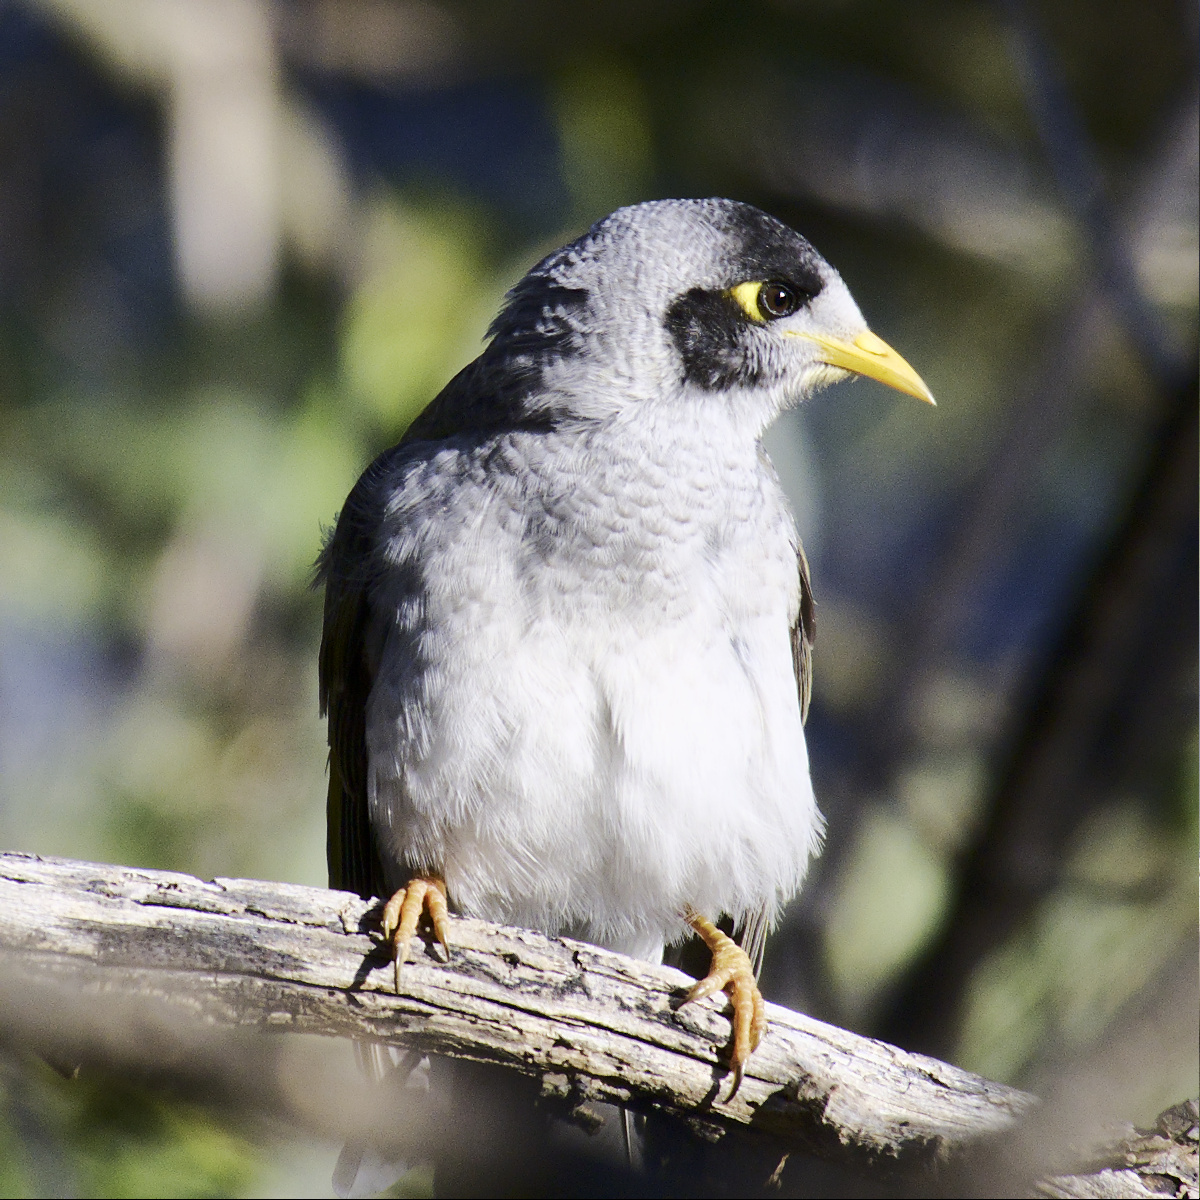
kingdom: Animalia
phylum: Chordata
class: Aves
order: Passeriformes
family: Meliphagidae
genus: Manorina
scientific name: Manorina melanocephala
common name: Noisy miner
